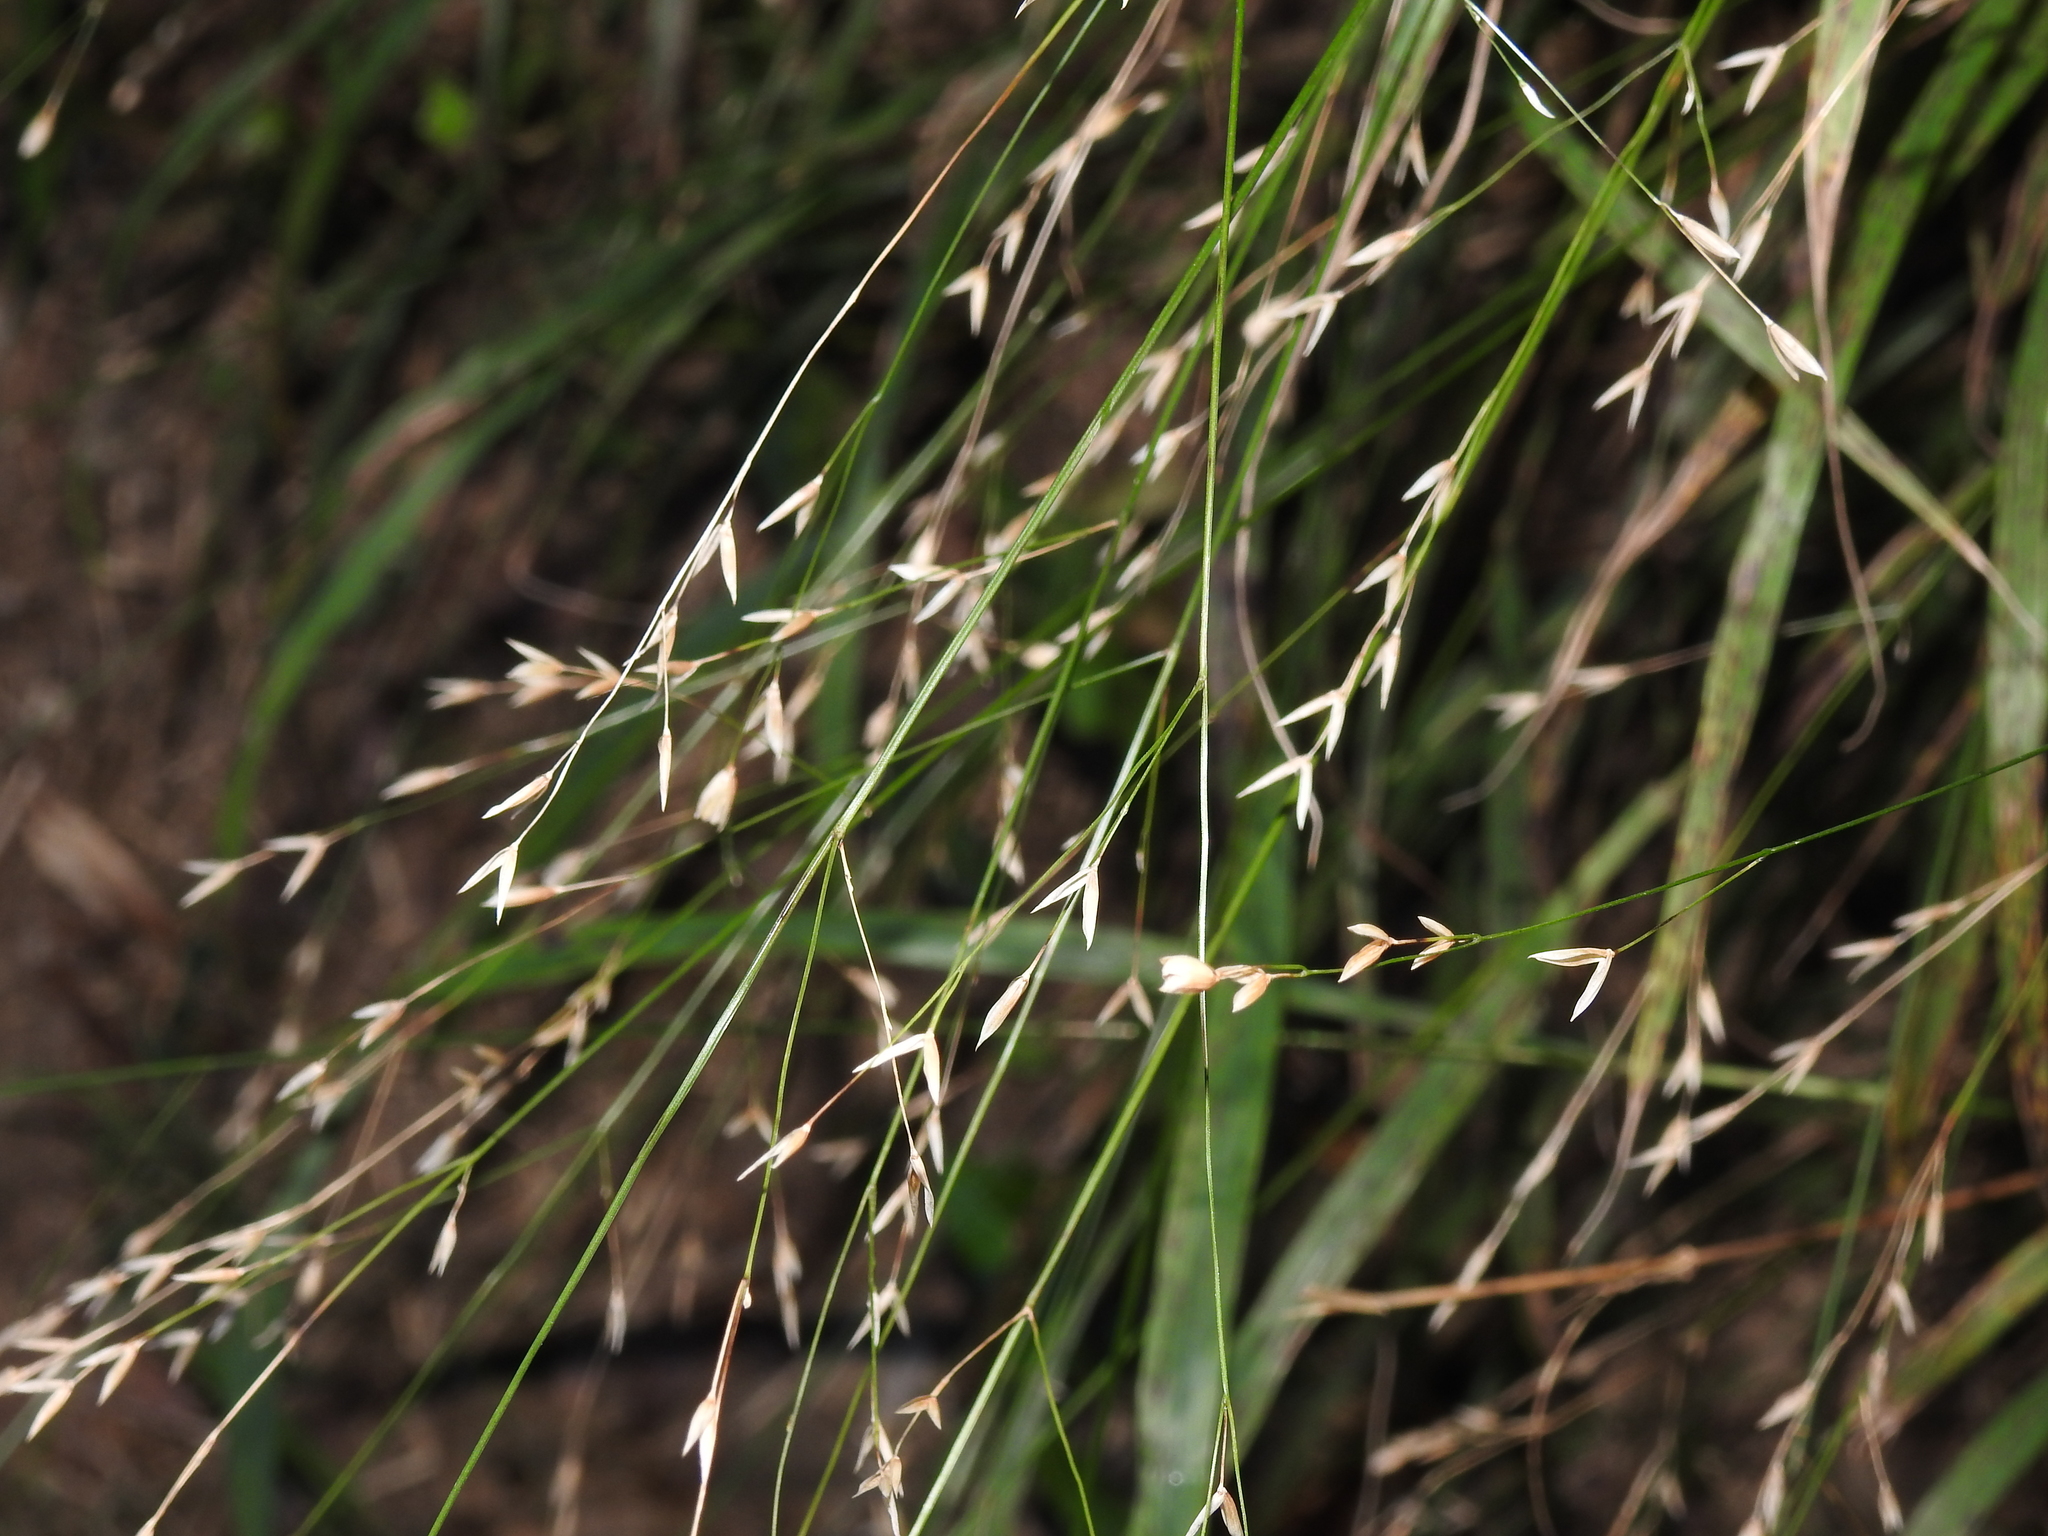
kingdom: Plantae
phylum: Tracheophyta
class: Liliopsida
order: Poales
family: Poaceae
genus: Melica
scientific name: Melica uniflora
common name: Wood melick
